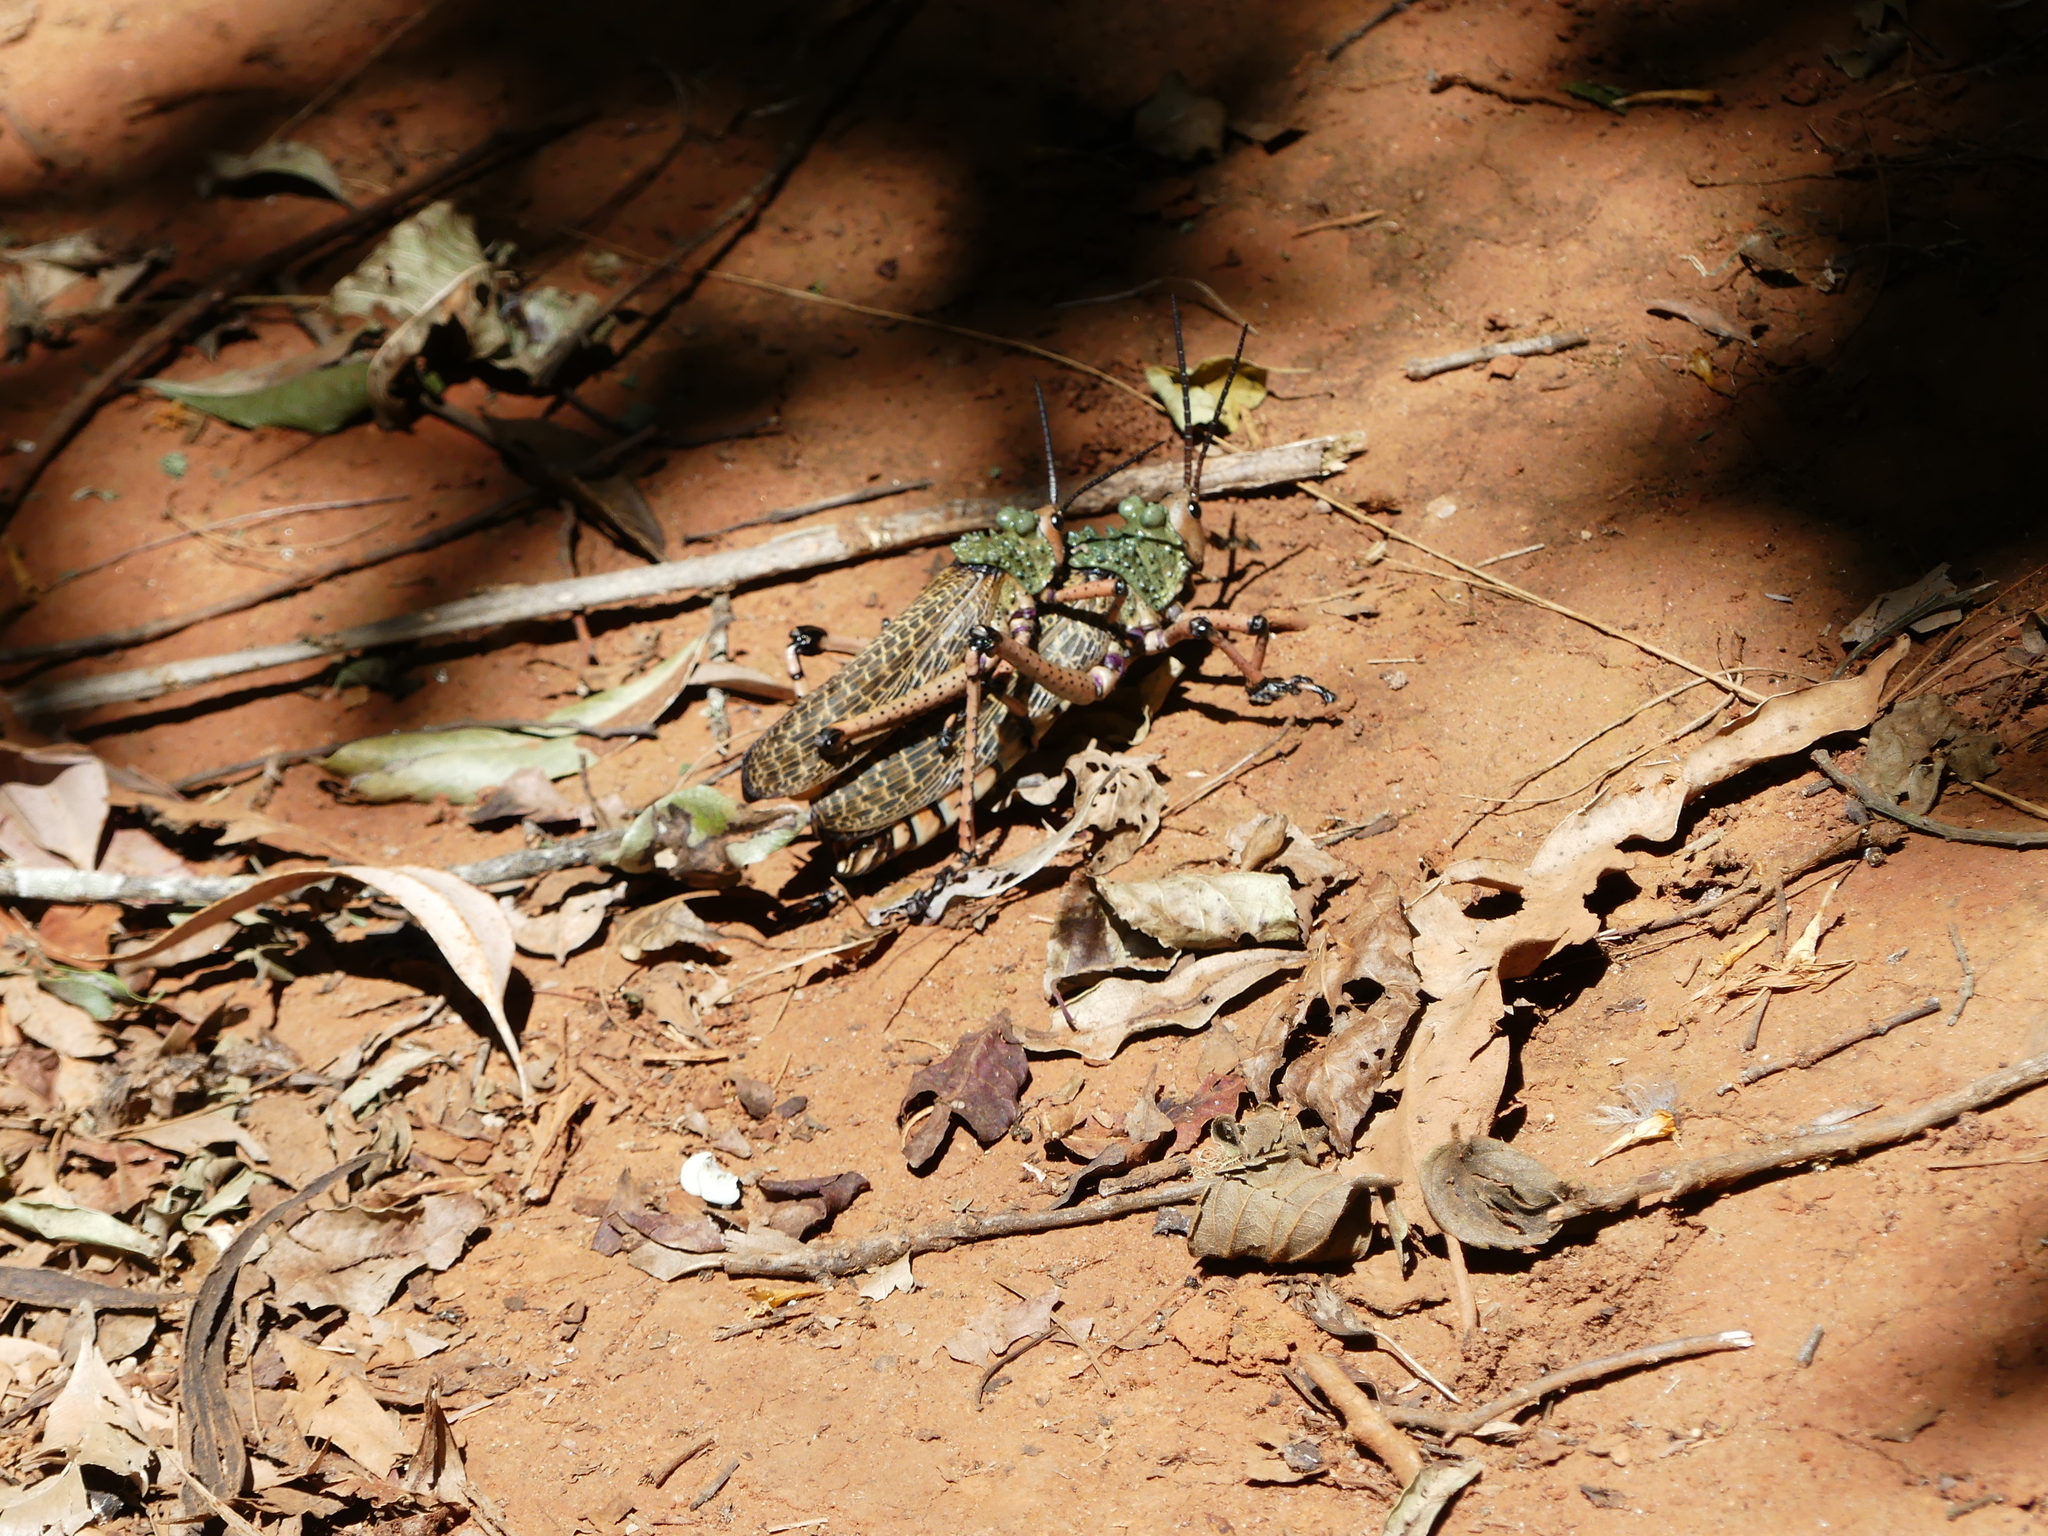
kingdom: Animalia
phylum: Arthropoda
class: Insecta
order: Orthoptera
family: Pyrgomorphidae
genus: Phymateus
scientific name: Phymateus leprosus
